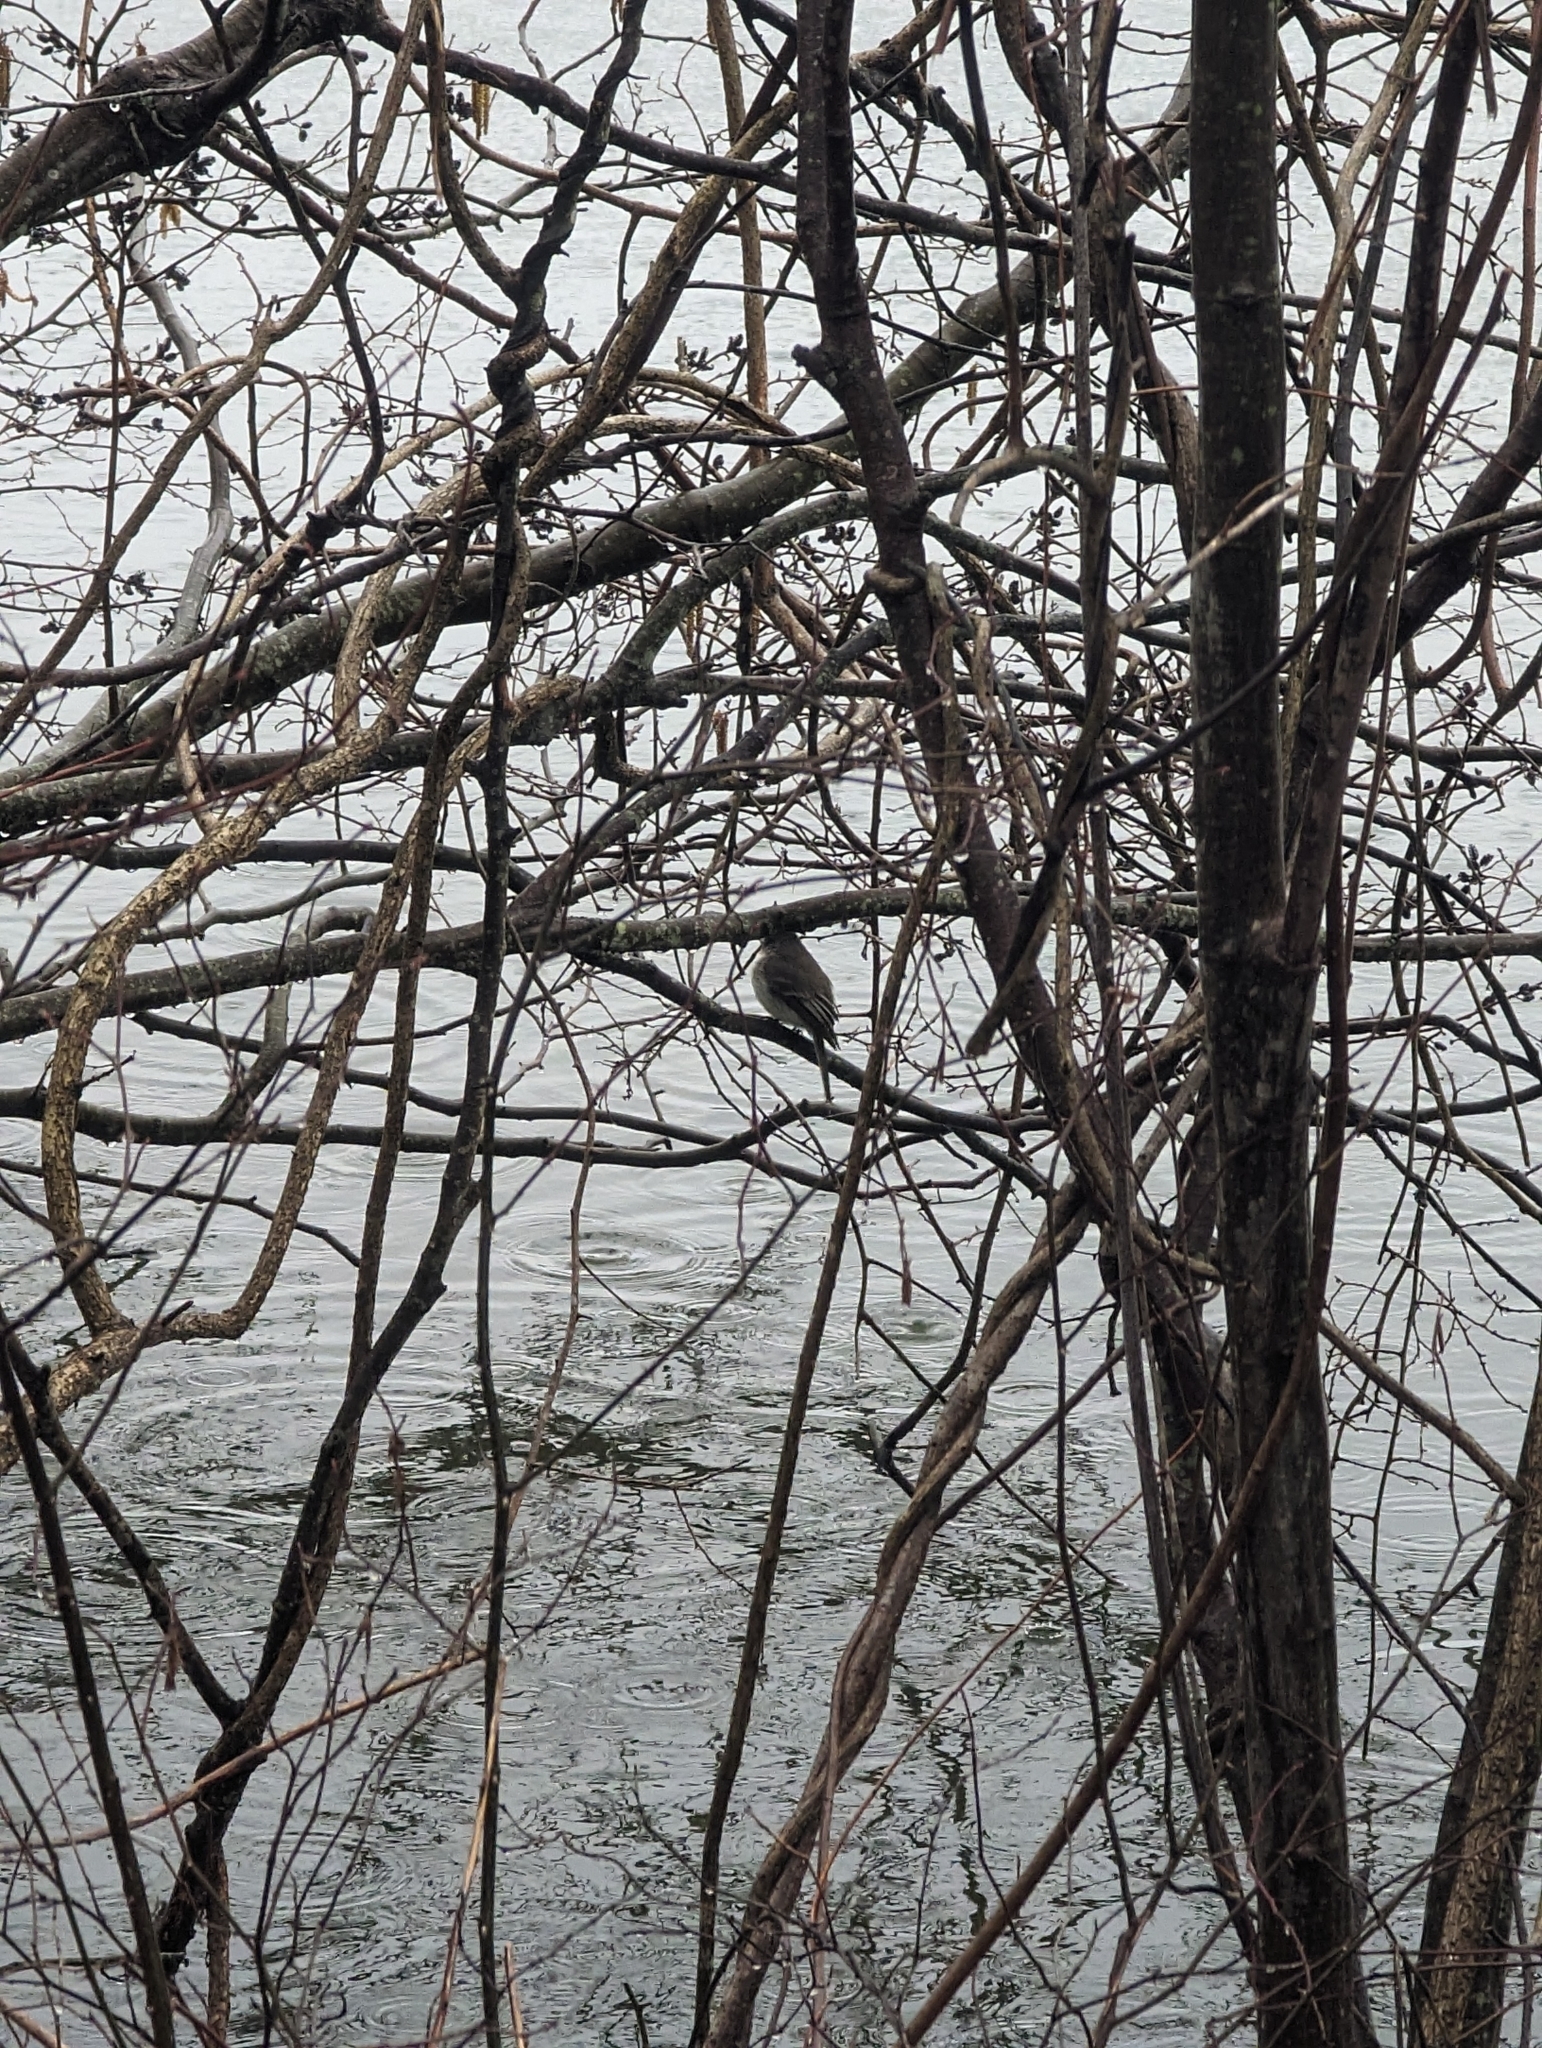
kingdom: Animalia
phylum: Chordata
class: Aves
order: Passeriformes
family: Tyrannidae
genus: Sayornis
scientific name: Sayornis phoebe
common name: Eastern phoebe
